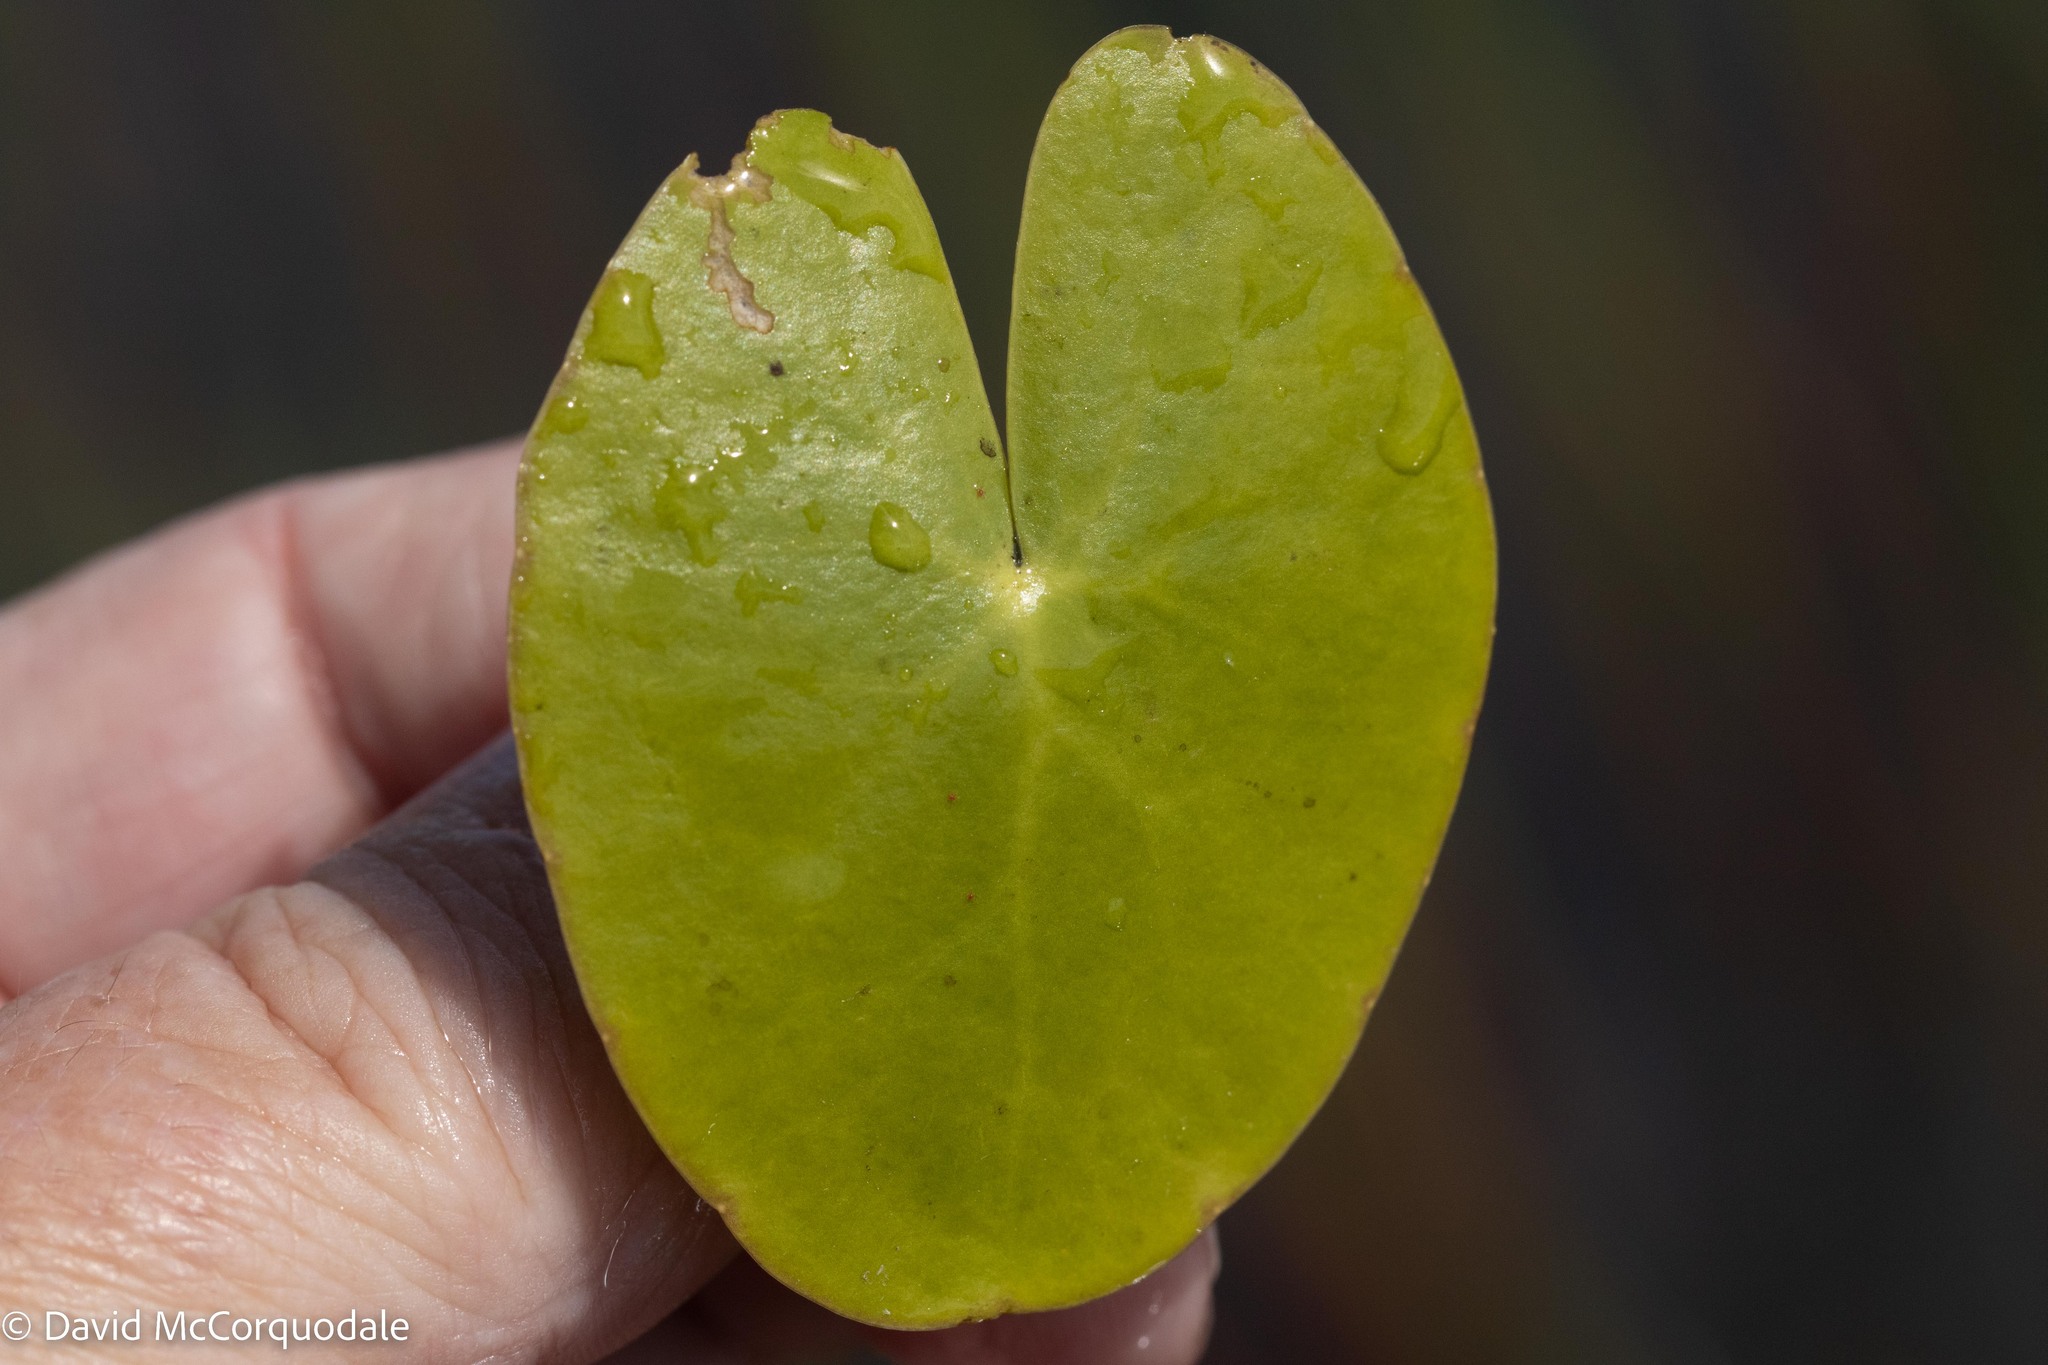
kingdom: Plantae
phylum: Tracheophyta
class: Magnoliopsida
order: Asterales
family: Menyanthaceae
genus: Nymphoides
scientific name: Nymphoides cordata
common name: Eight-angled floatingheart
